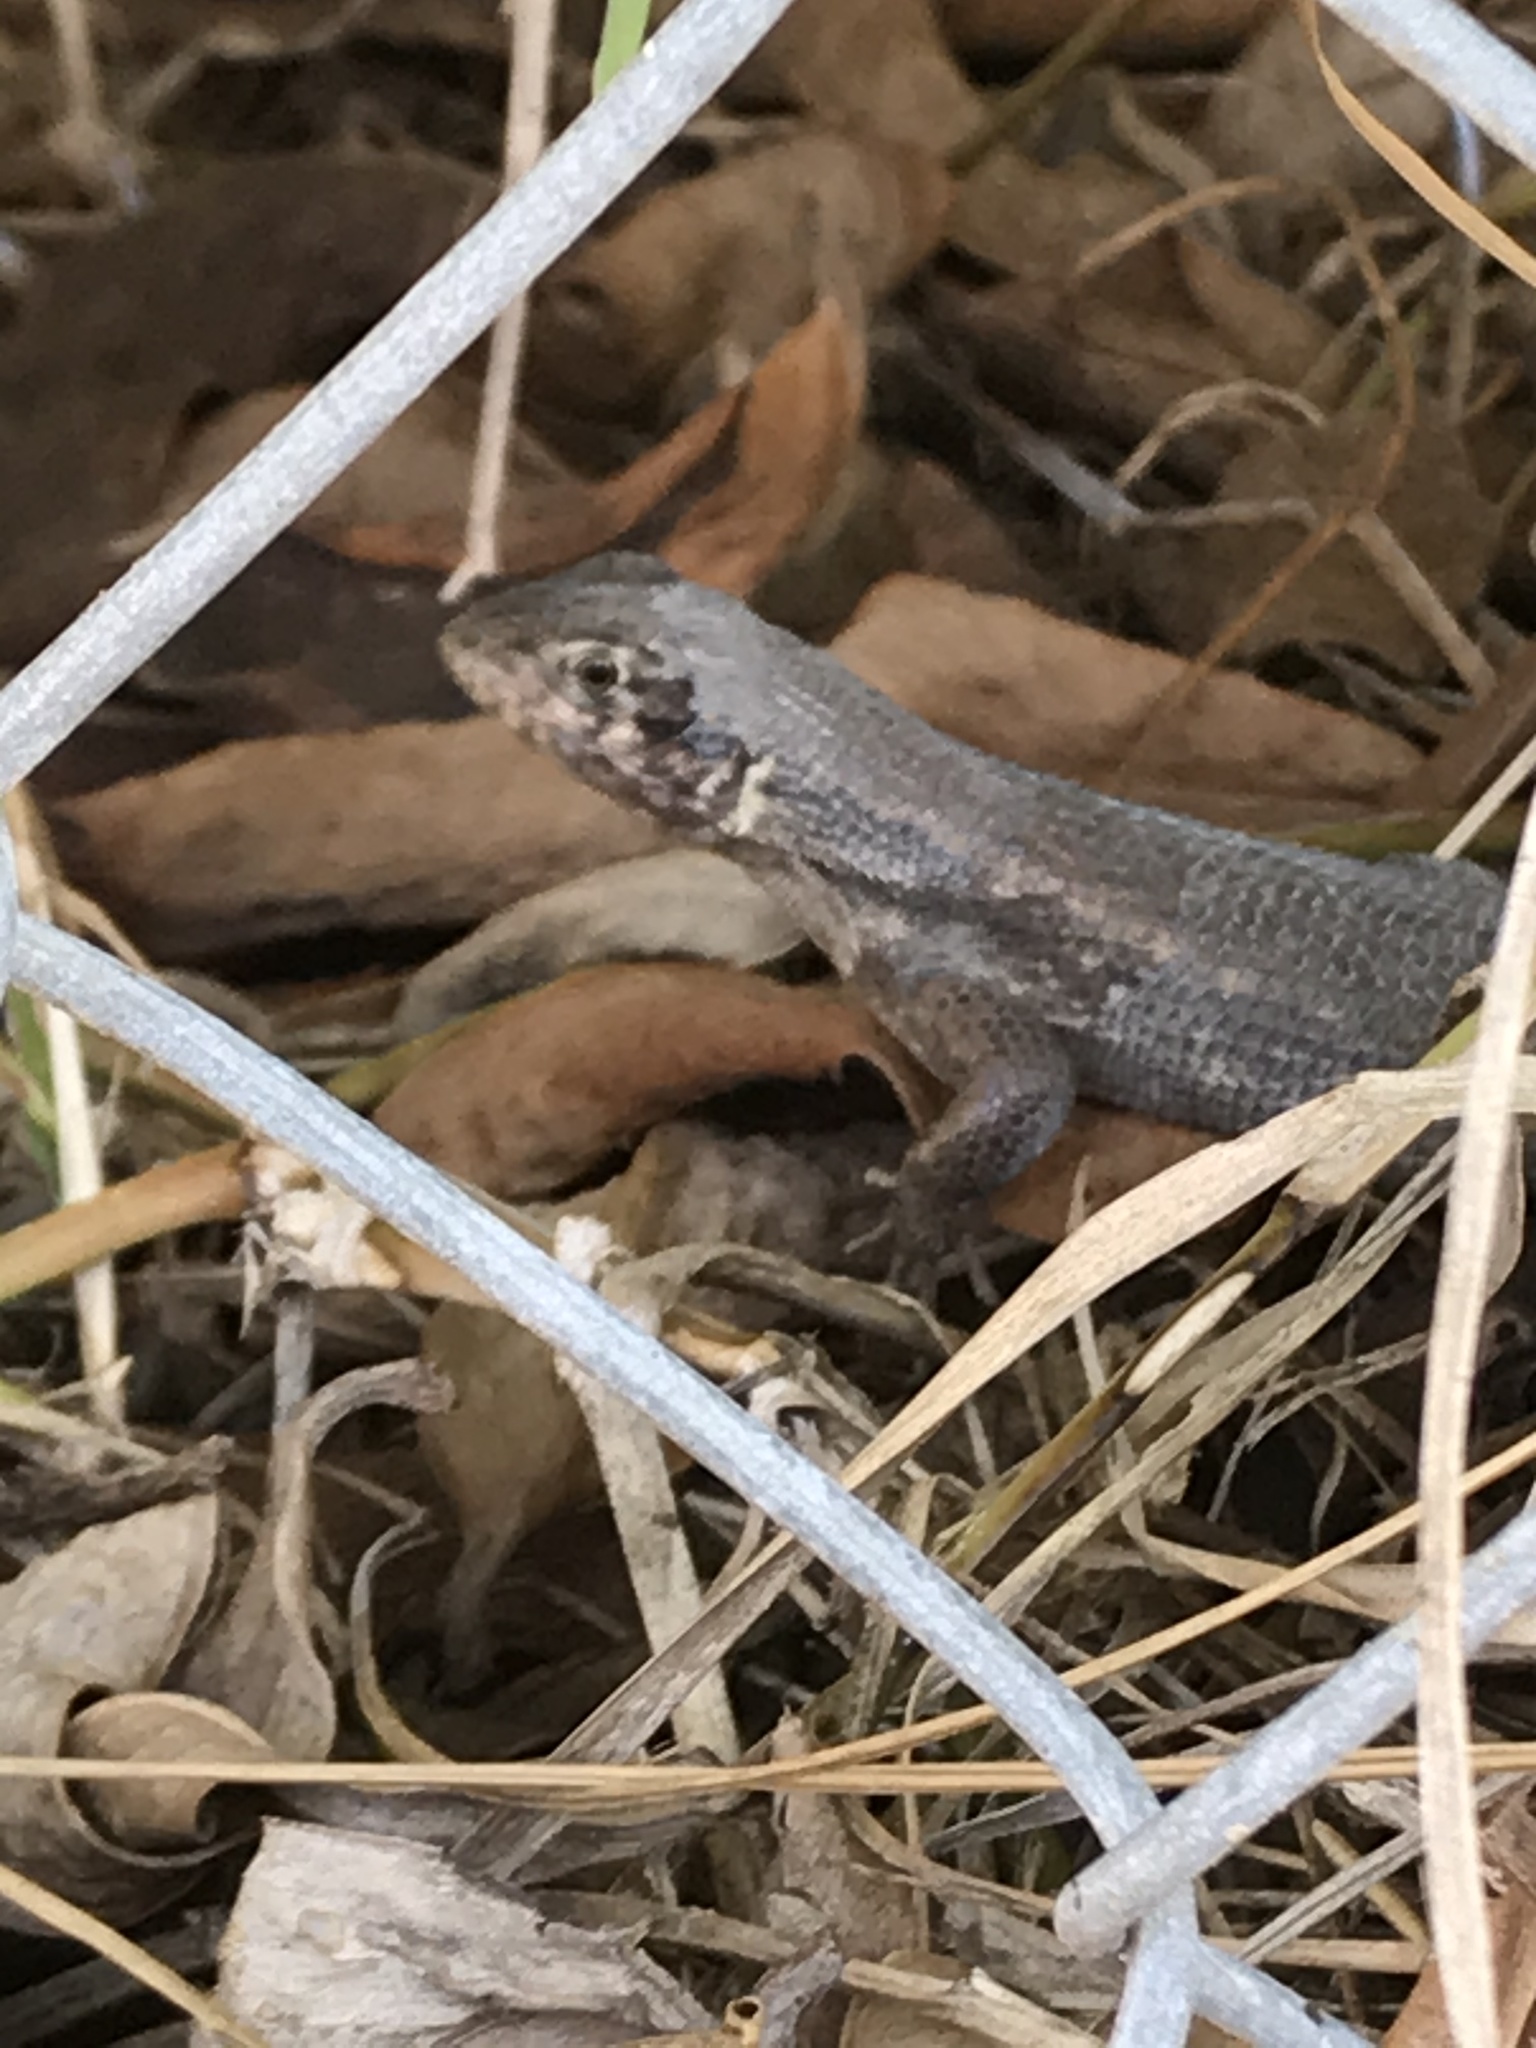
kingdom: Animalia
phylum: Chordata
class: Squamata
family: Leiocephalidae
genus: Leiocephalus
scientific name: Leiocephalus carinatus
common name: Northern curly-tailed lizard
